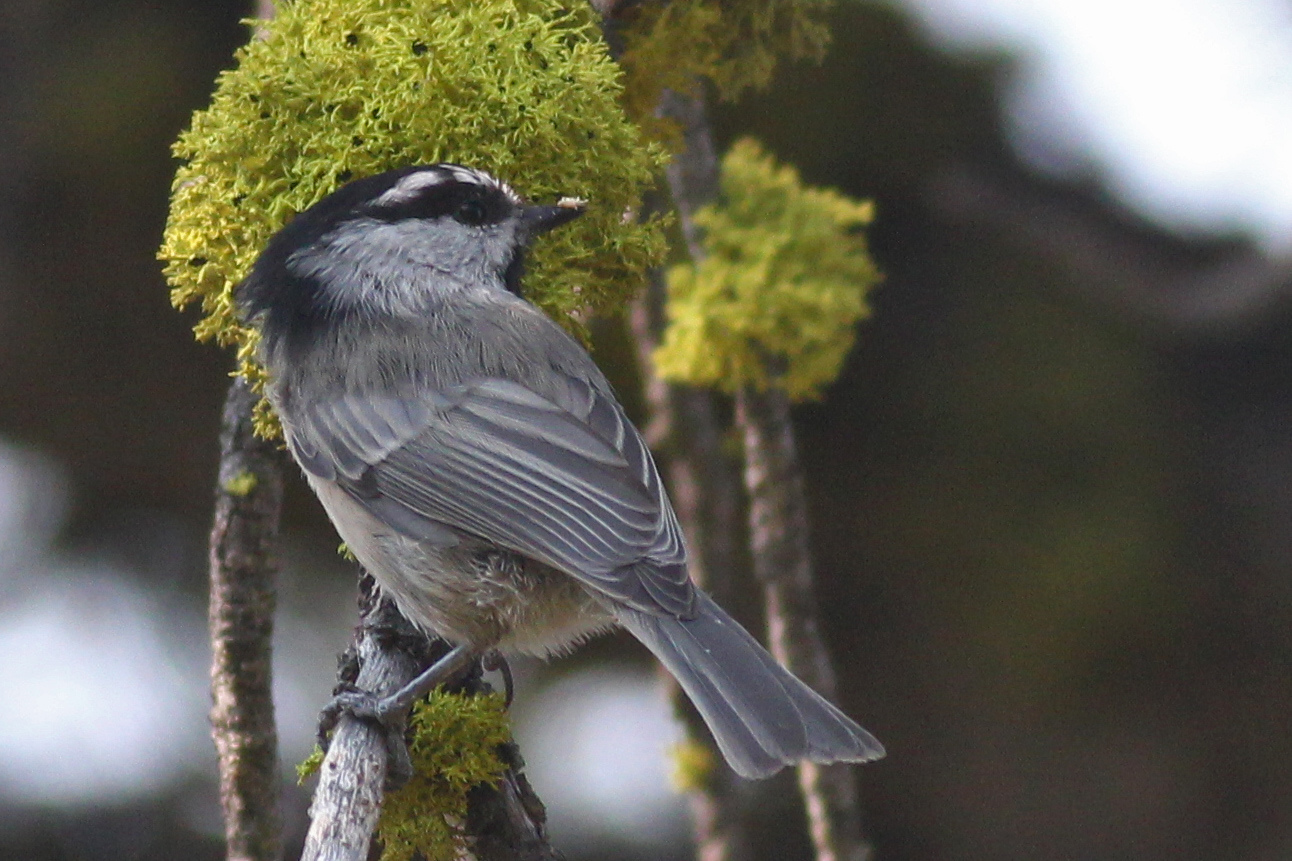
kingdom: Animalia
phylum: Chordata
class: Aves
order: Passeriformes
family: Paridae
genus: Poecile
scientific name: Poecile gambeli
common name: Mountain chickadee
